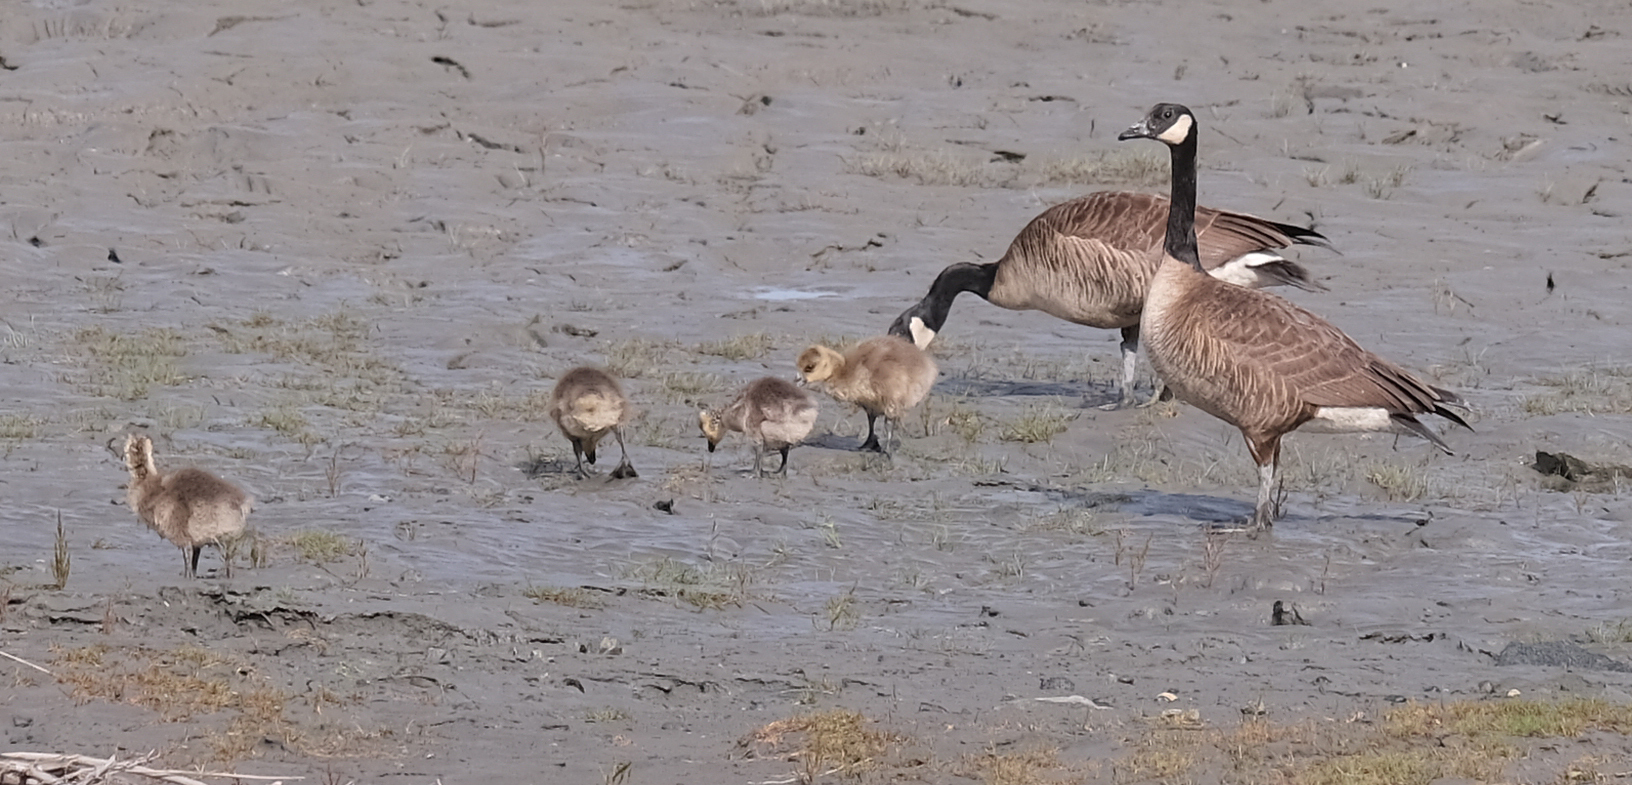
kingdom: Animalia
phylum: Chordata
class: Aves
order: Anseriformes
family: Anatidae
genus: Branta
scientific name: Branta canadensis
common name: Canada goose
